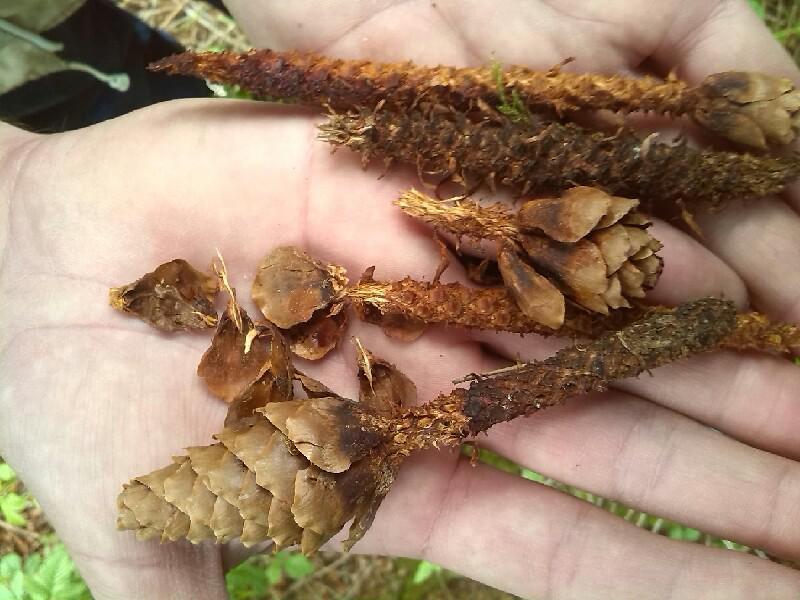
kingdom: Animalia
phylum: Chordata
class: Mammalia
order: Rodentia
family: Sciuridae
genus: Sciurus
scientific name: Sciurus vulgaris
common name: Eurasian red squirrel
